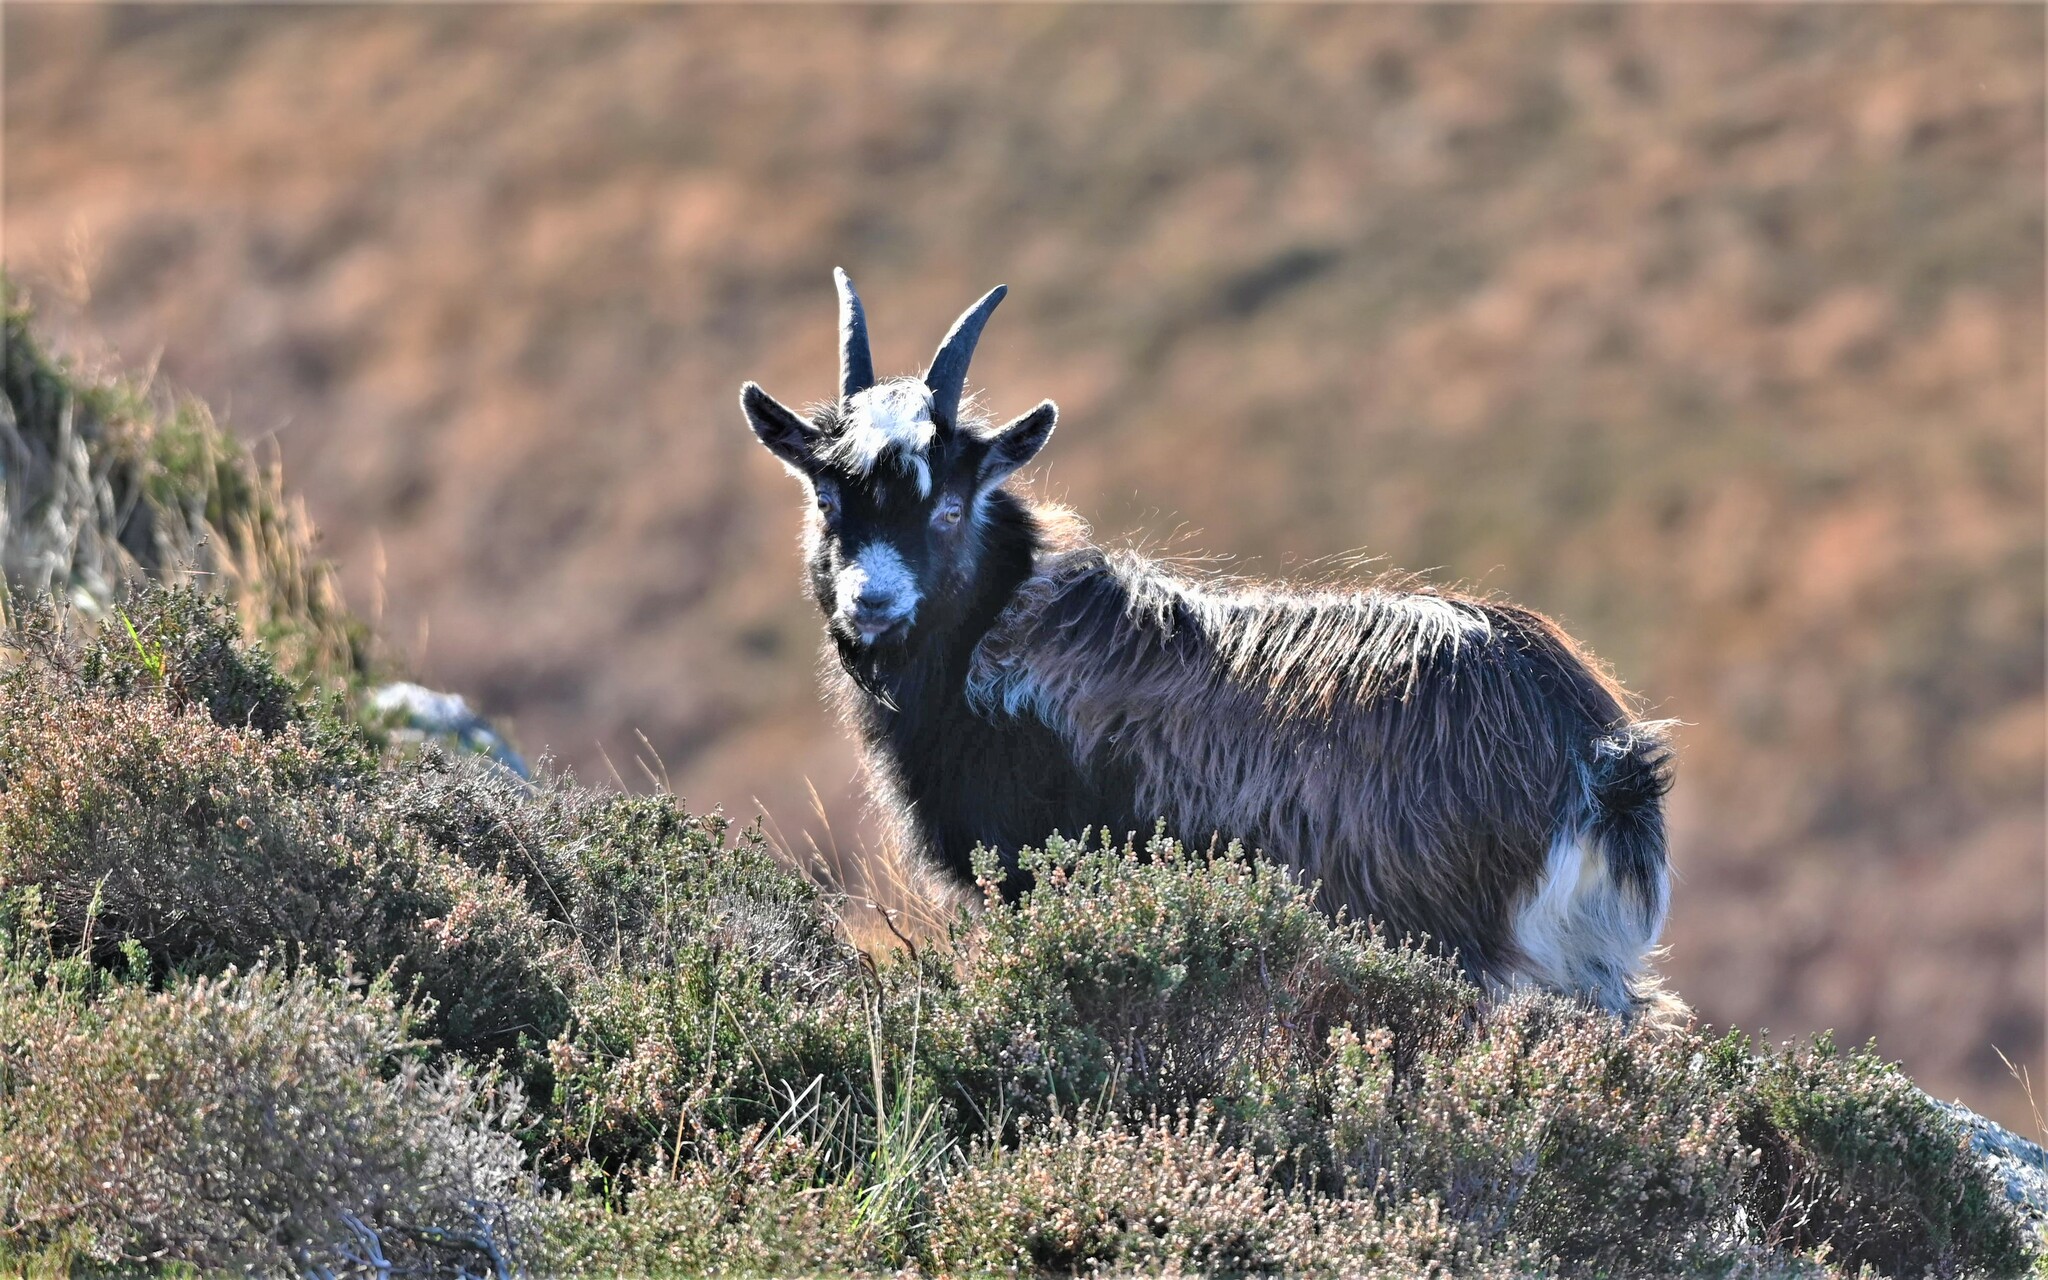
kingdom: Animalia
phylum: Chordata
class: Mammalia
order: Artiodactyla
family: Bovidae
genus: Capra
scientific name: Capra hircus
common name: Domestic goat
